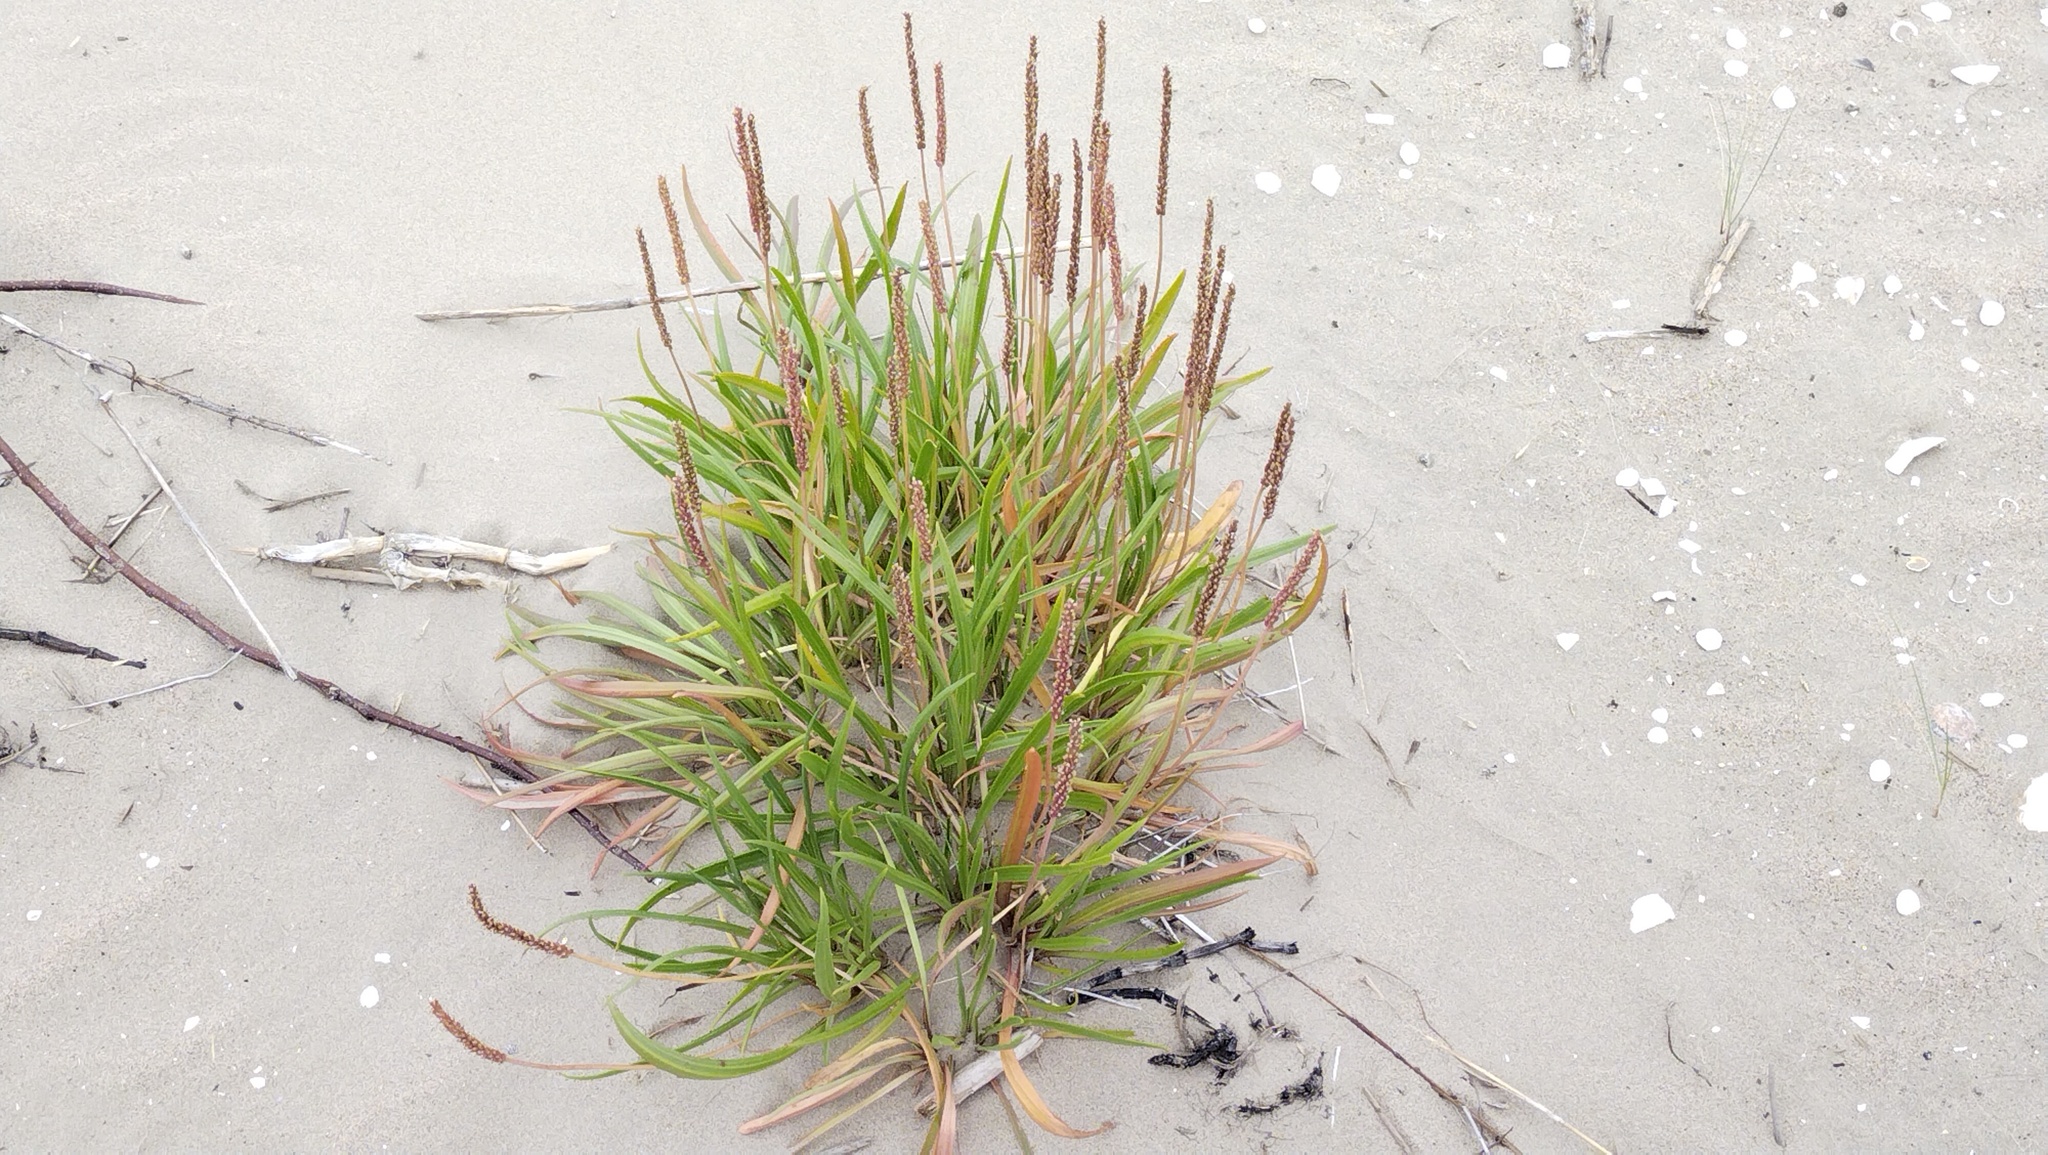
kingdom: Plantae
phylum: Tracheophyta
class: Magnoliopsida
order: Lamiales
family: Plantaginaceae
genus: Plantago
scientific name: Plantago maritima
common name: Sea plantain
